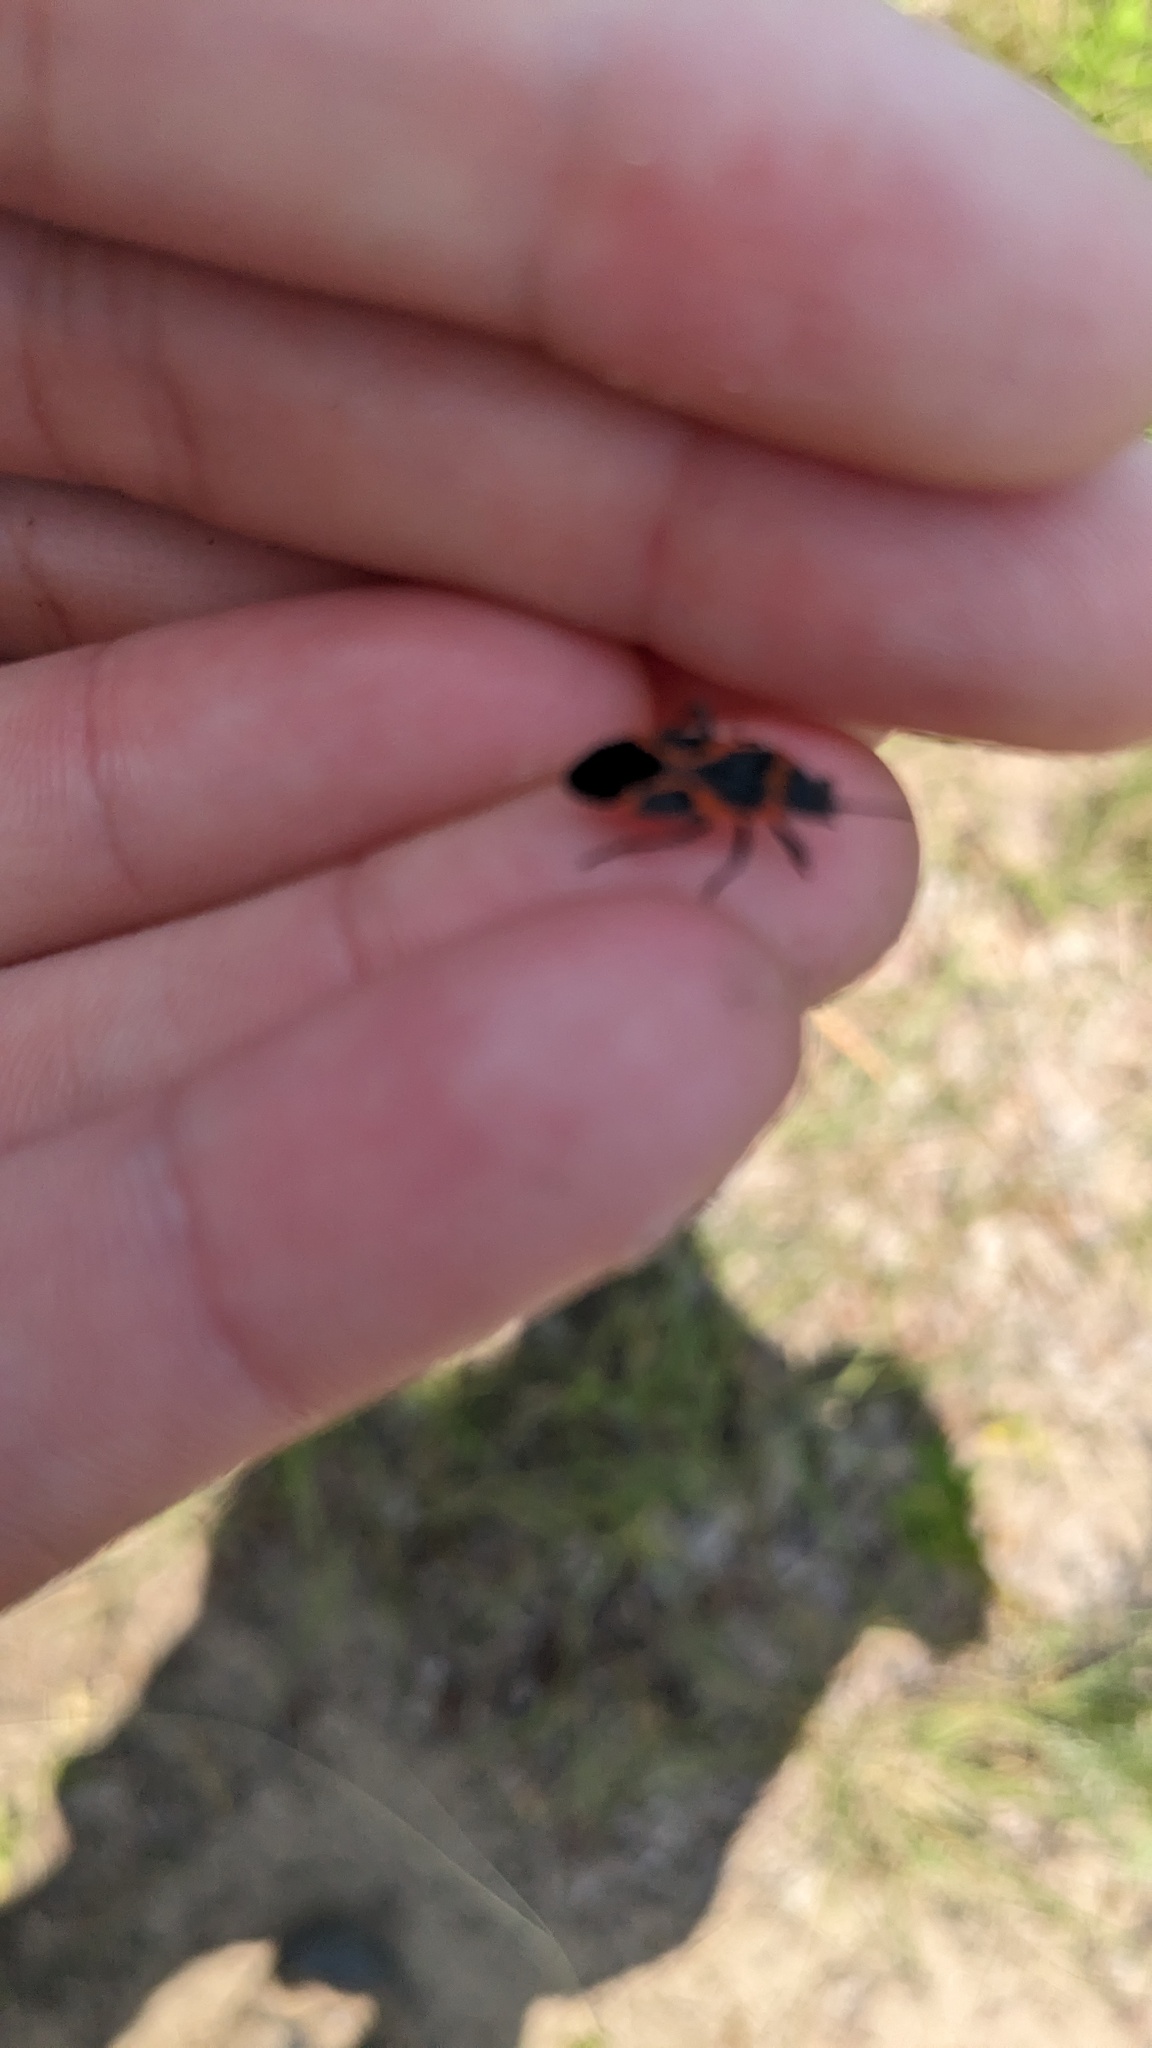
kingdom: Animalia
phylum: Arthropoda
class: Insecta
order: Hemiptera
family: Lygaeidae
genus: Lygaeus
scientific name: Lygaeus kalmii
